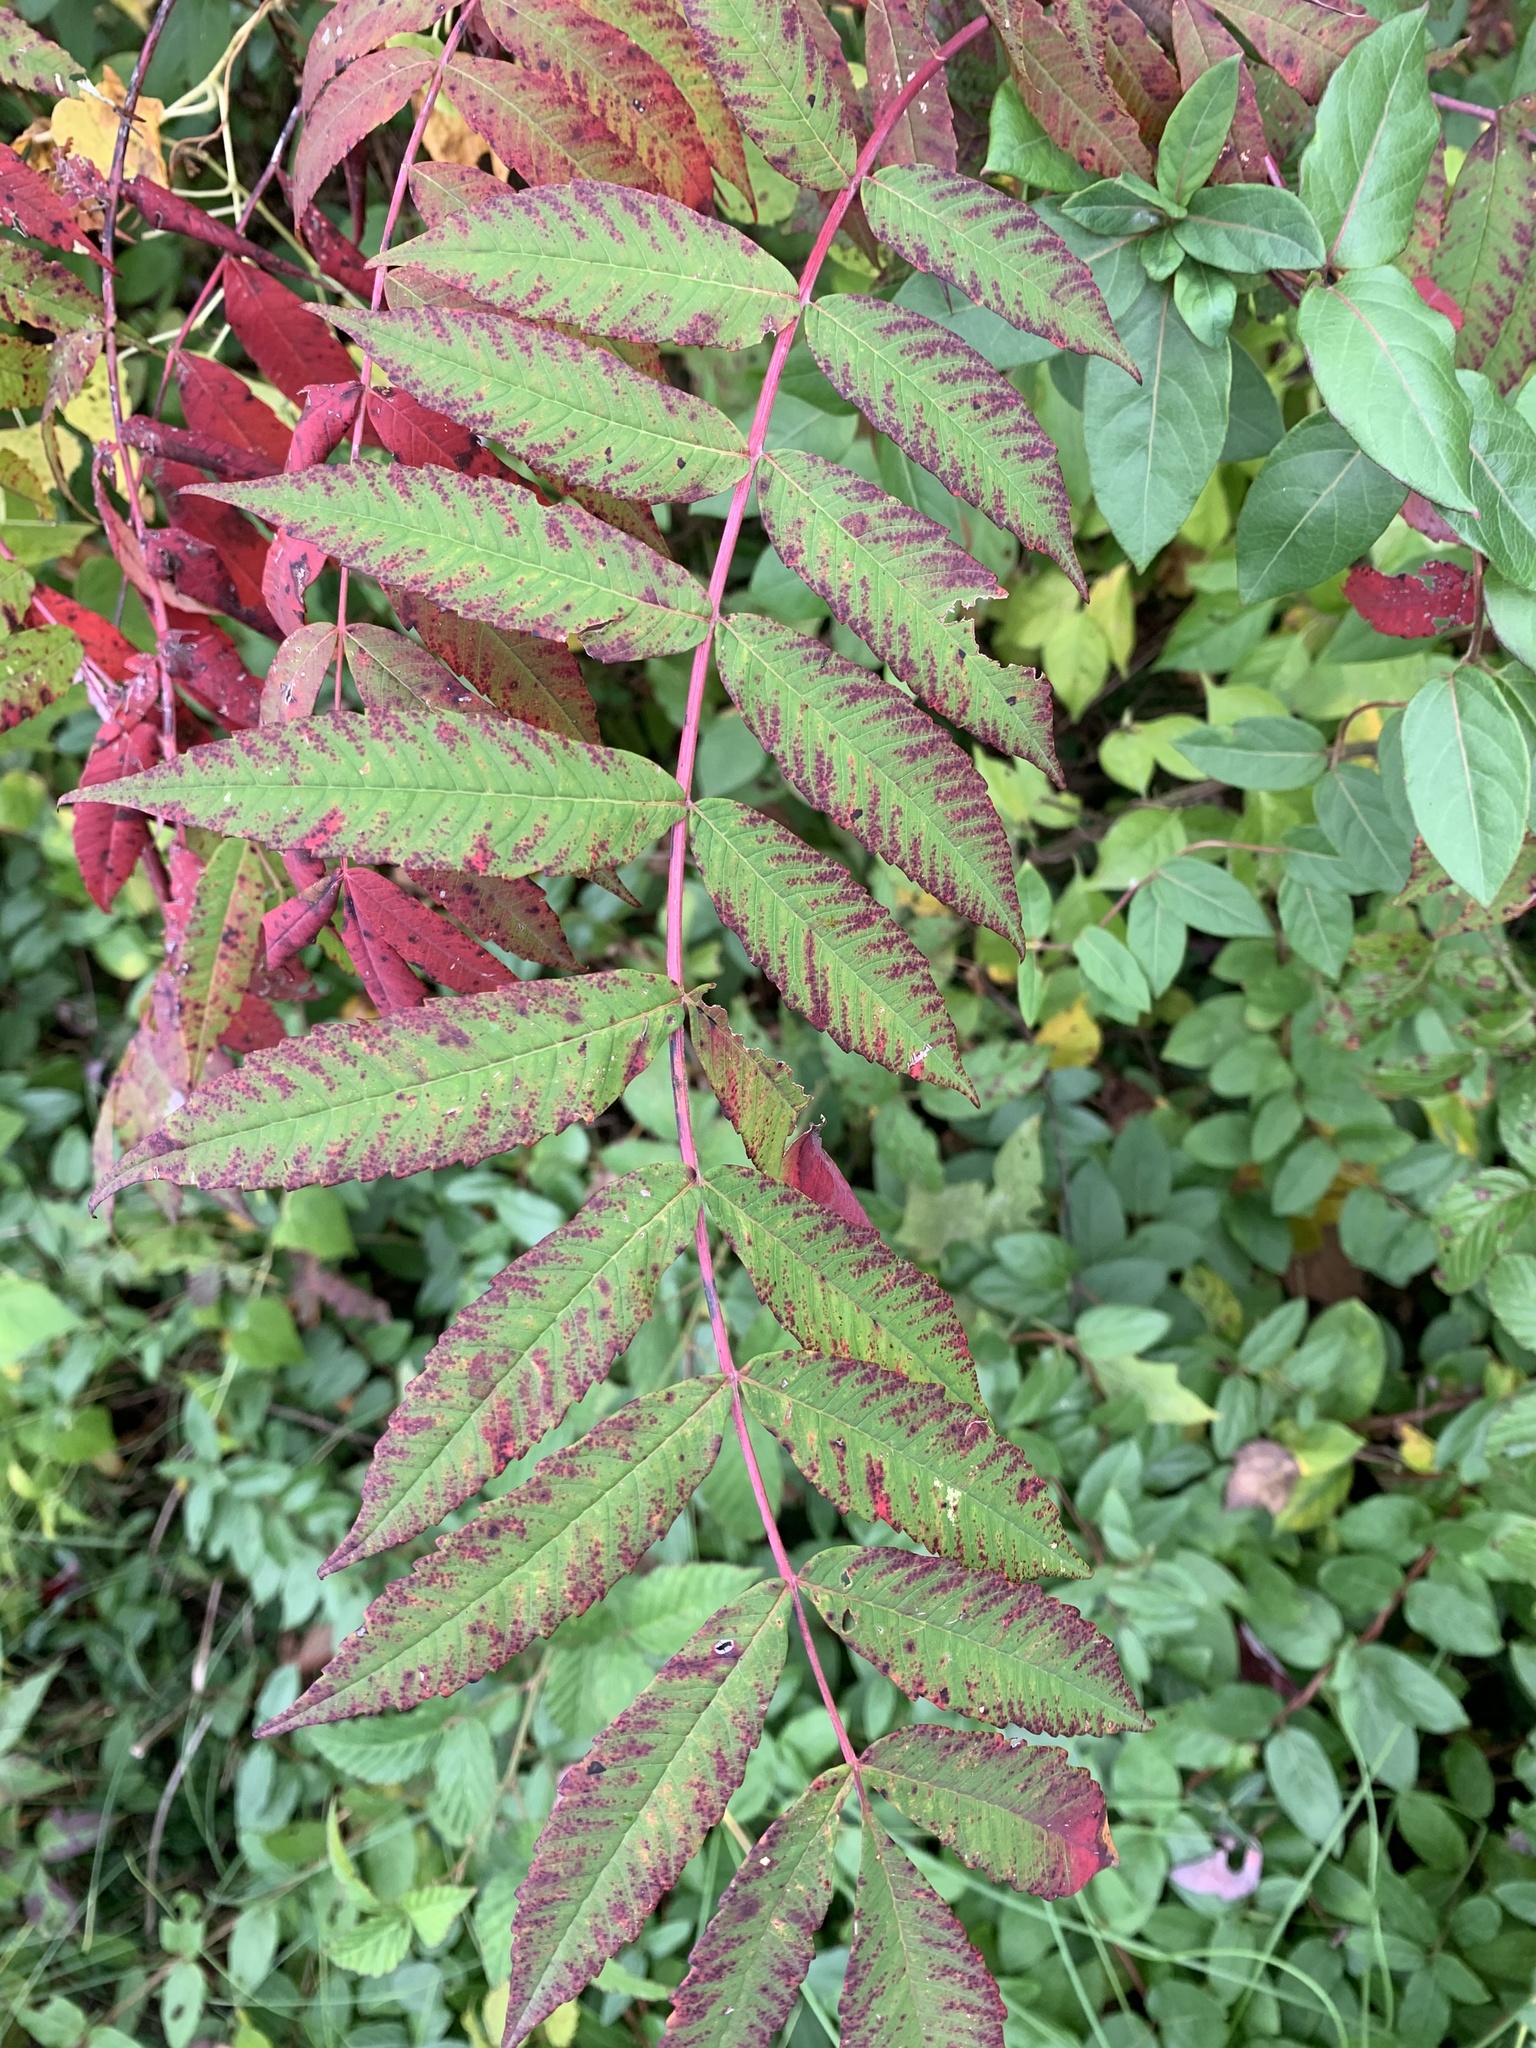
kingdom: Plantae
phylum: Tracheophyta
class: Magnoliopsida
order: Sapindales
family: Anacardiaceae
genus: Rhus
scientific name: Rhus glabra
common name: Scarlet sumac
